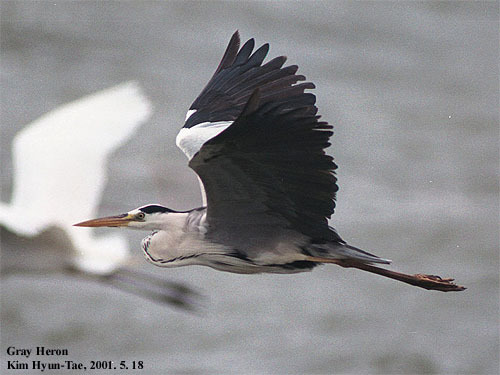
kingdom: Animalia
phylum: Chordata
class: Aves
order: Pelecaniformes
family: Ardeidae
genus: Ardea
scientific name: Ardea cinerea
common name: Grey heron
